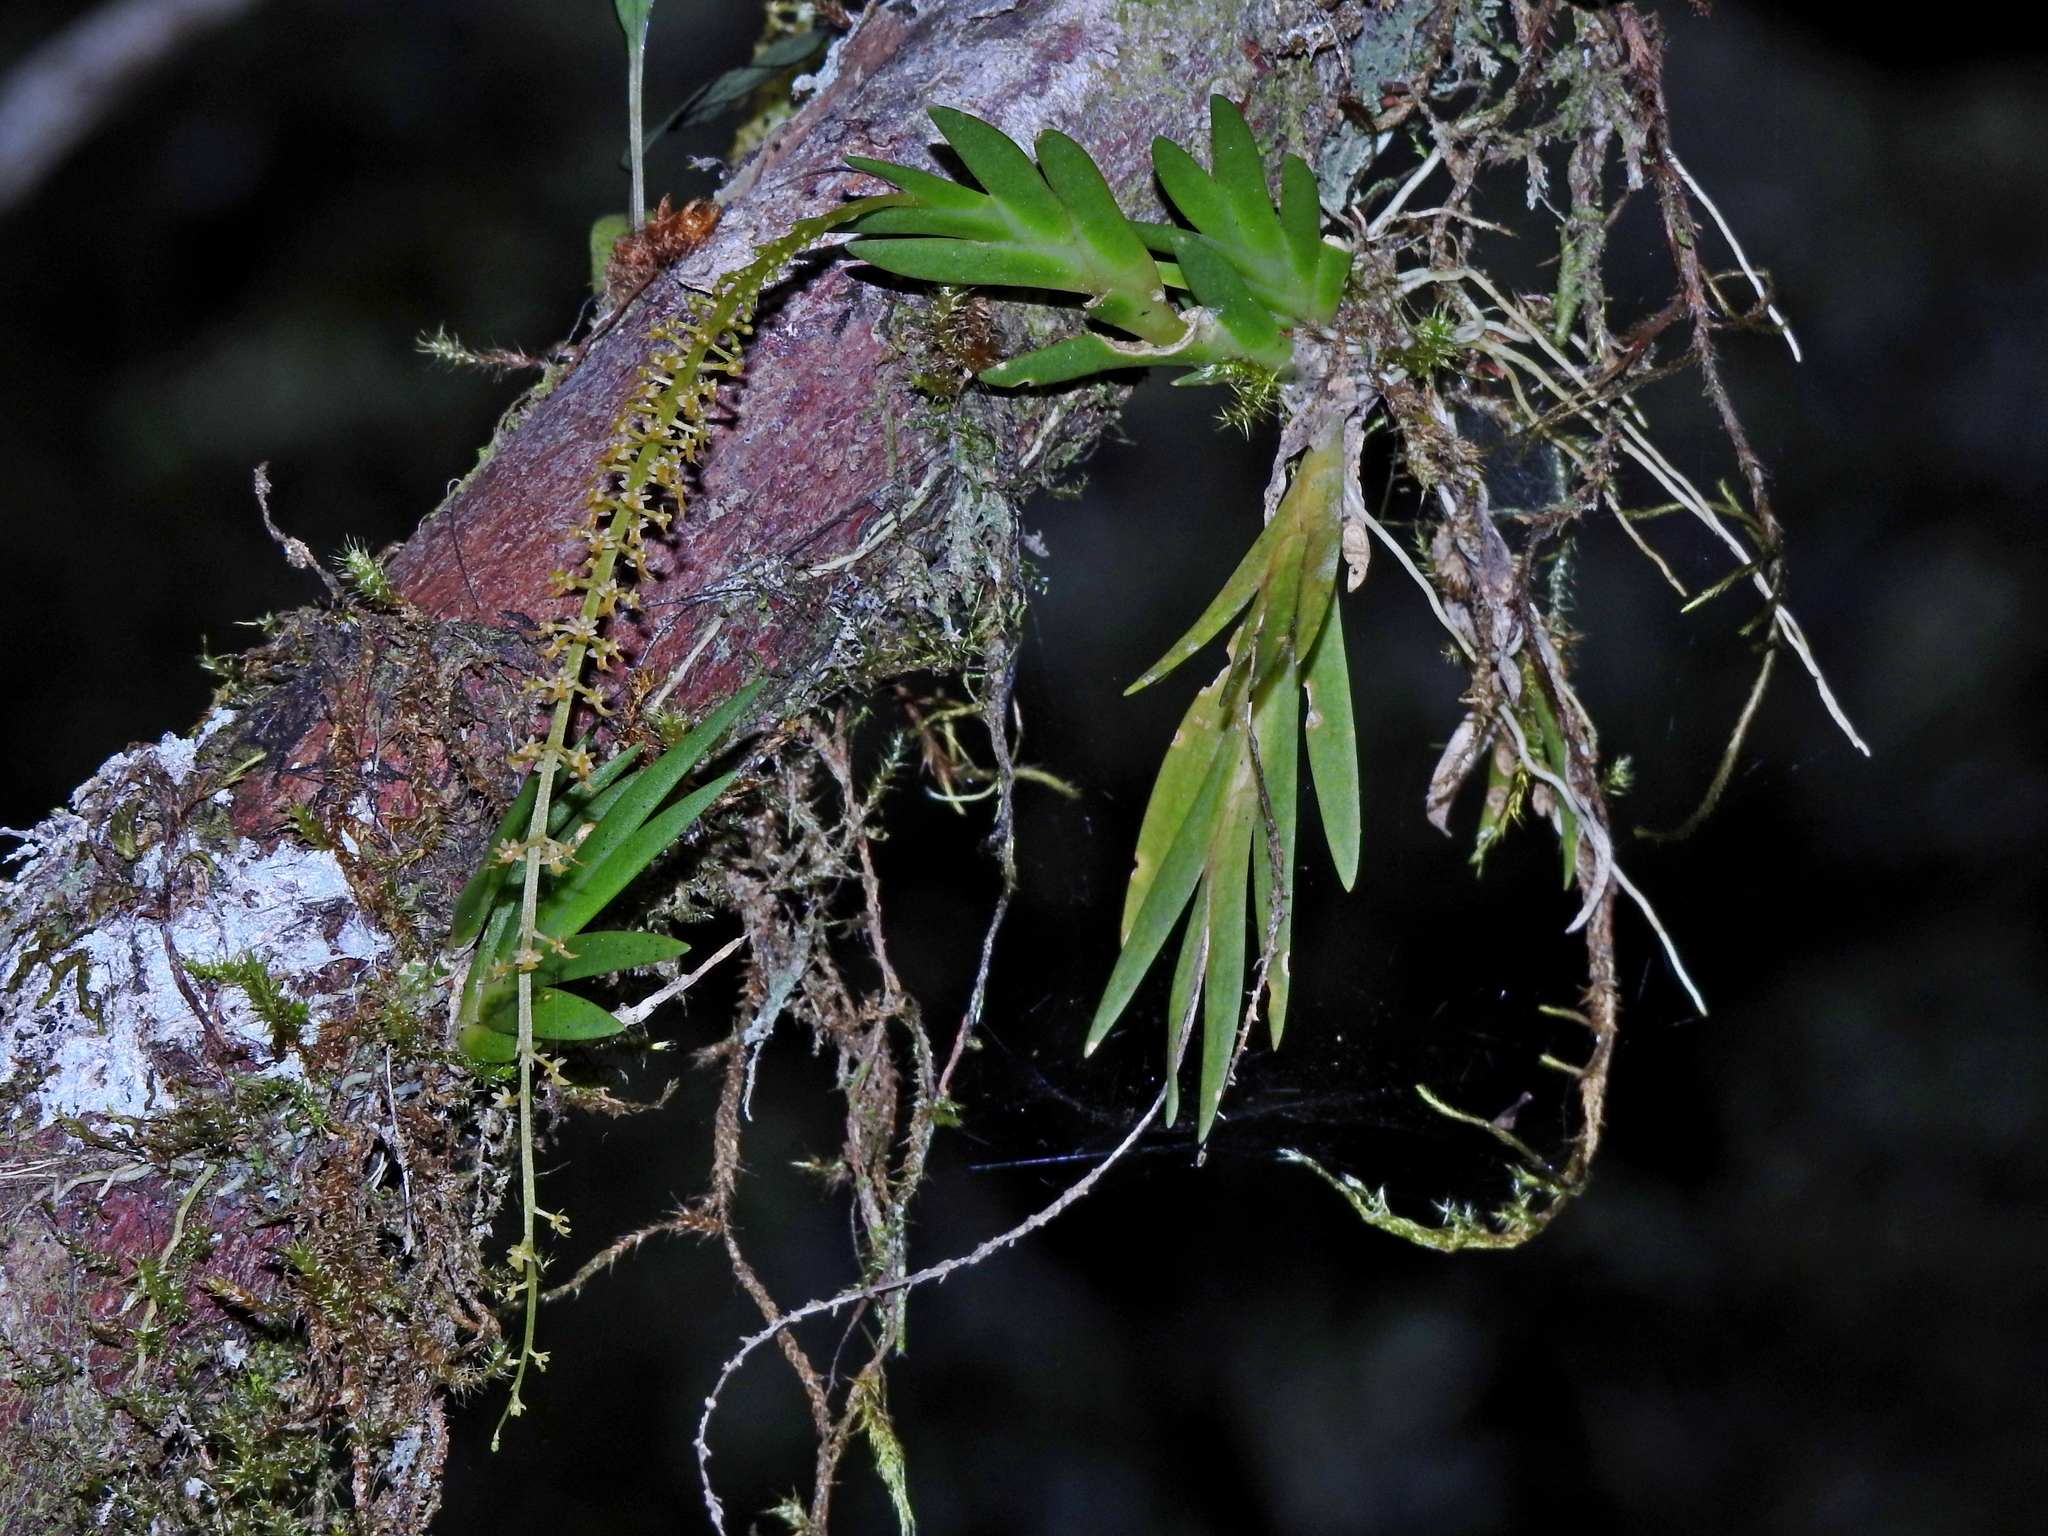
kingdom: Plantae
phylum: Tracheophyta
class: Liliopsida
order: Asparagales
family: Orchidaceae
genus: Oberonia
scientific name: Oberonia caulescens
